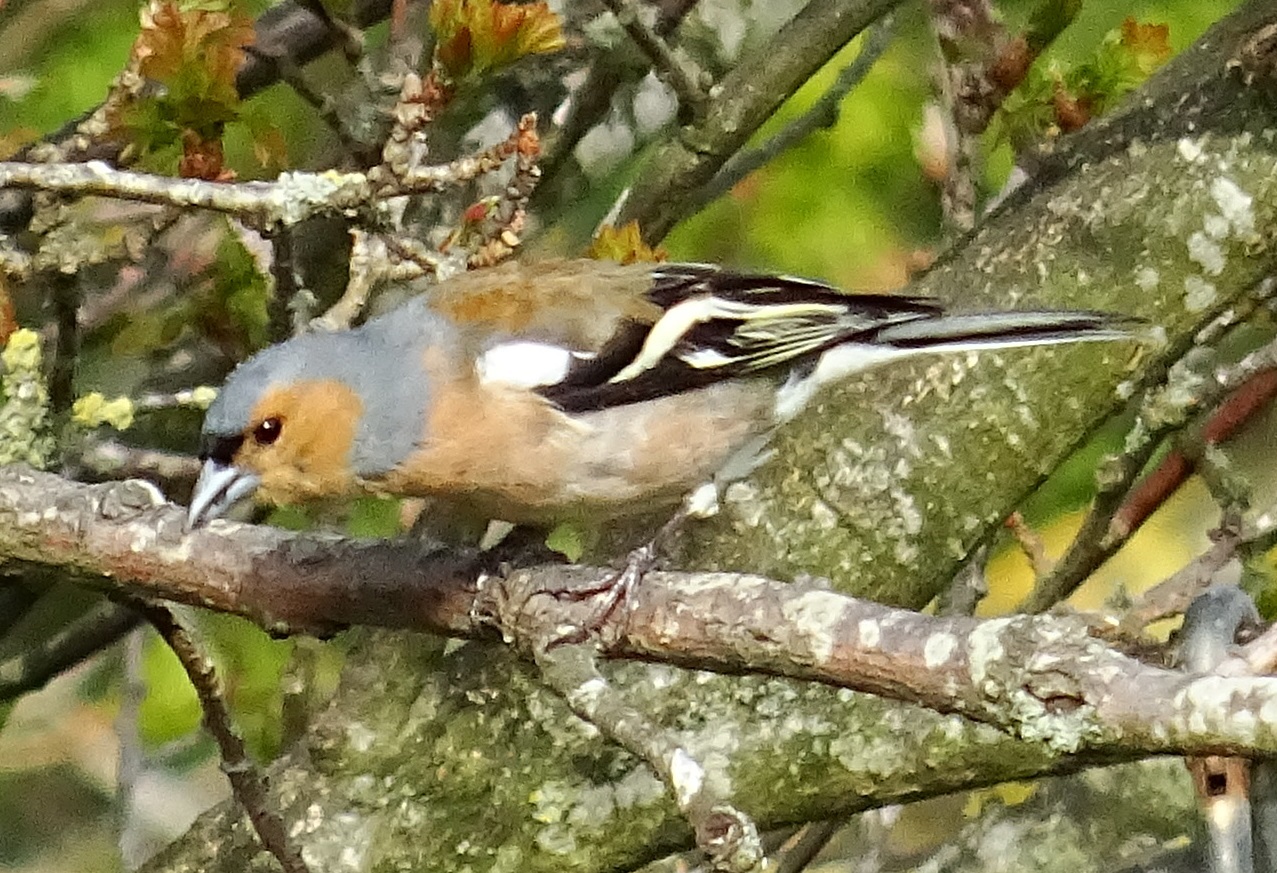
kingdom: Animalia
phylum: Chordata
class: Aves
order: Passeriformes
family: Fringillidae
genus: Fringilla
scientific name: Fringilla coelebs
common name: Common chaffinch
